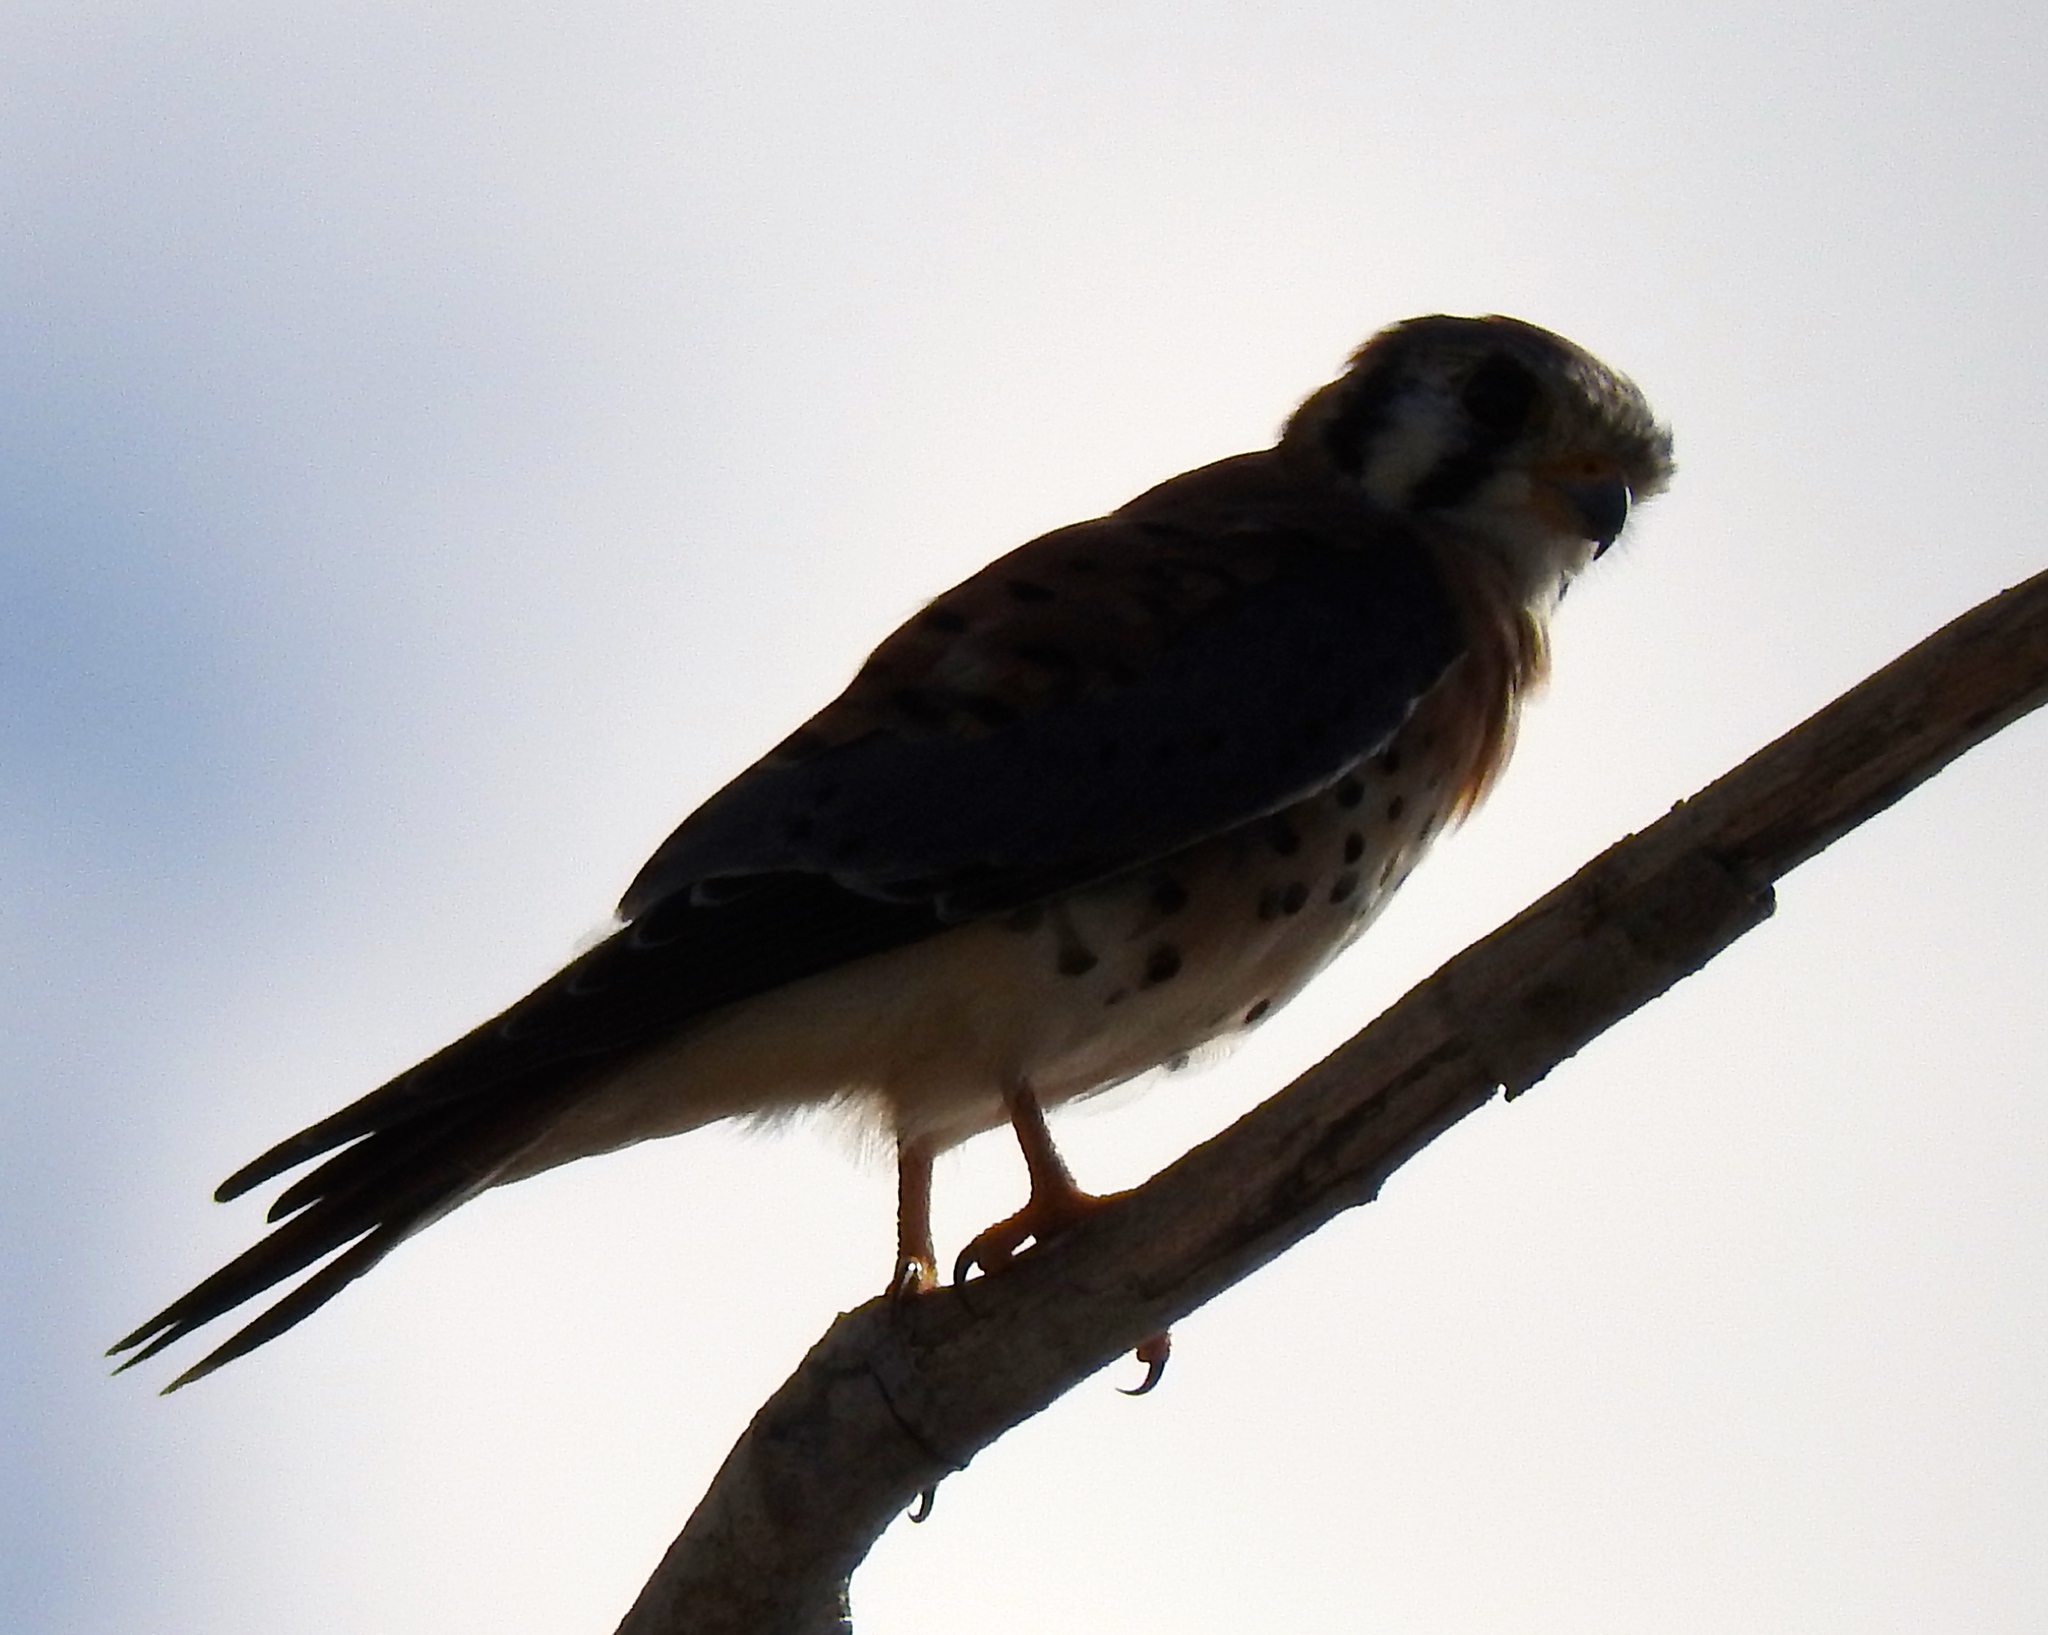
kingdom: Animalia
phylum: Chordata
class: Aves
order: Falconiformes
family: Falconidae
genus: Falco
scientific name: Falco sparverius
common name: American kestrel
